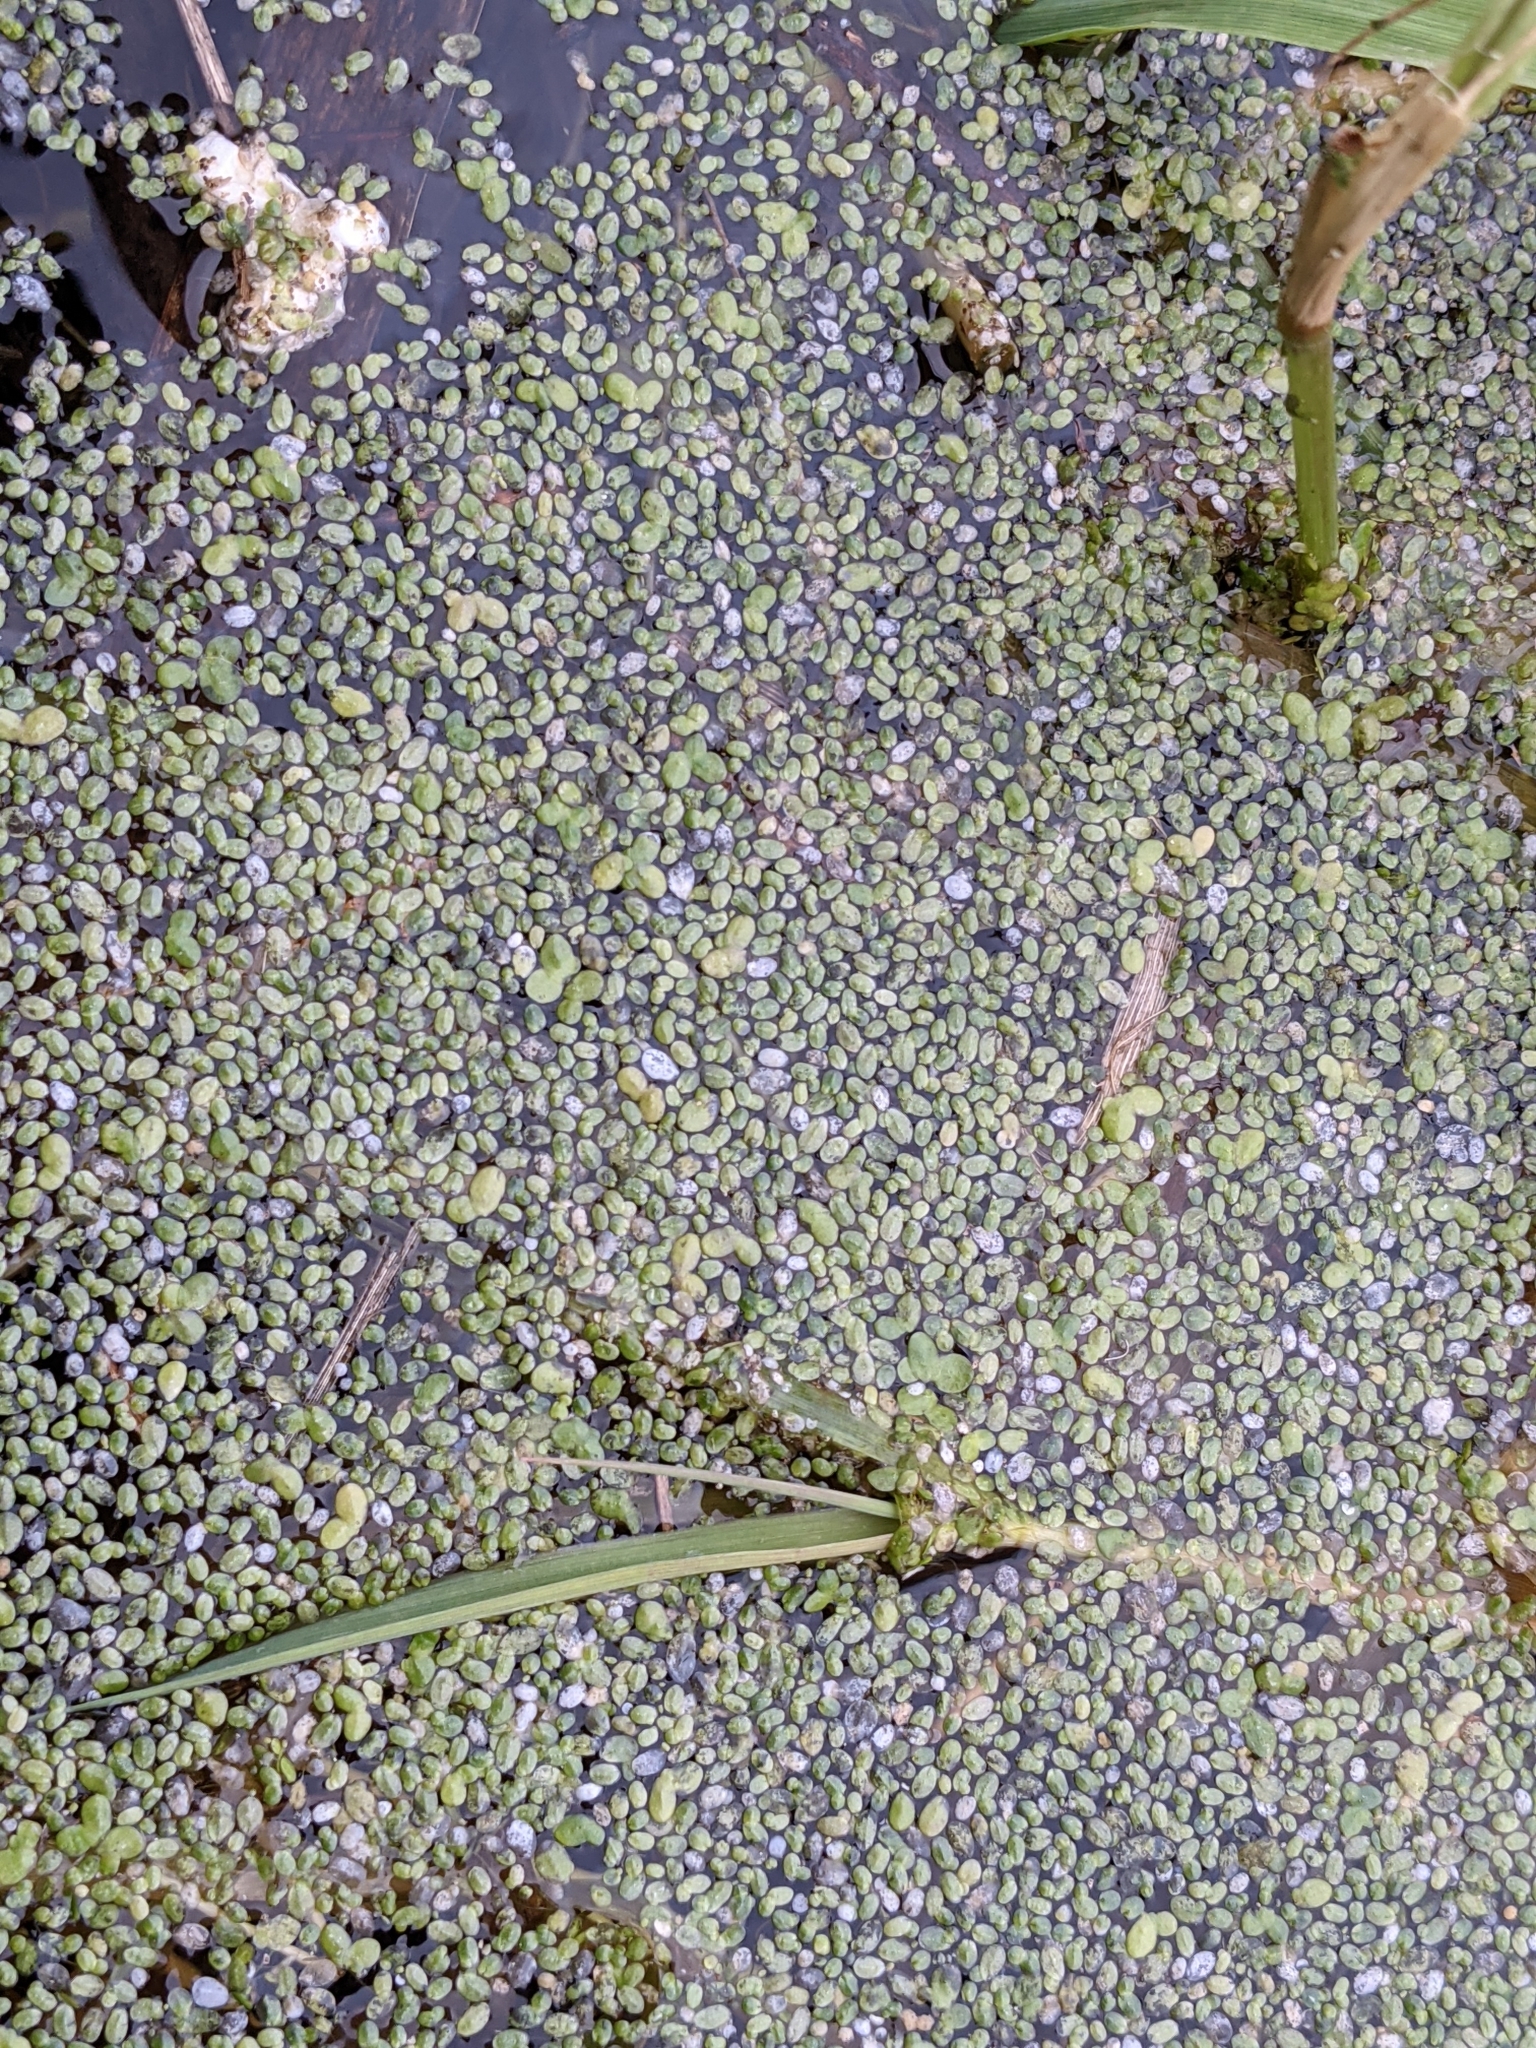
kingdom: Plantae
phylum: Tracheophyta
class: Liliopsida
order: Alismatales
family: Araceae
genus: Lemna
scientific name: Lemna minor
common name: Common duckweed
